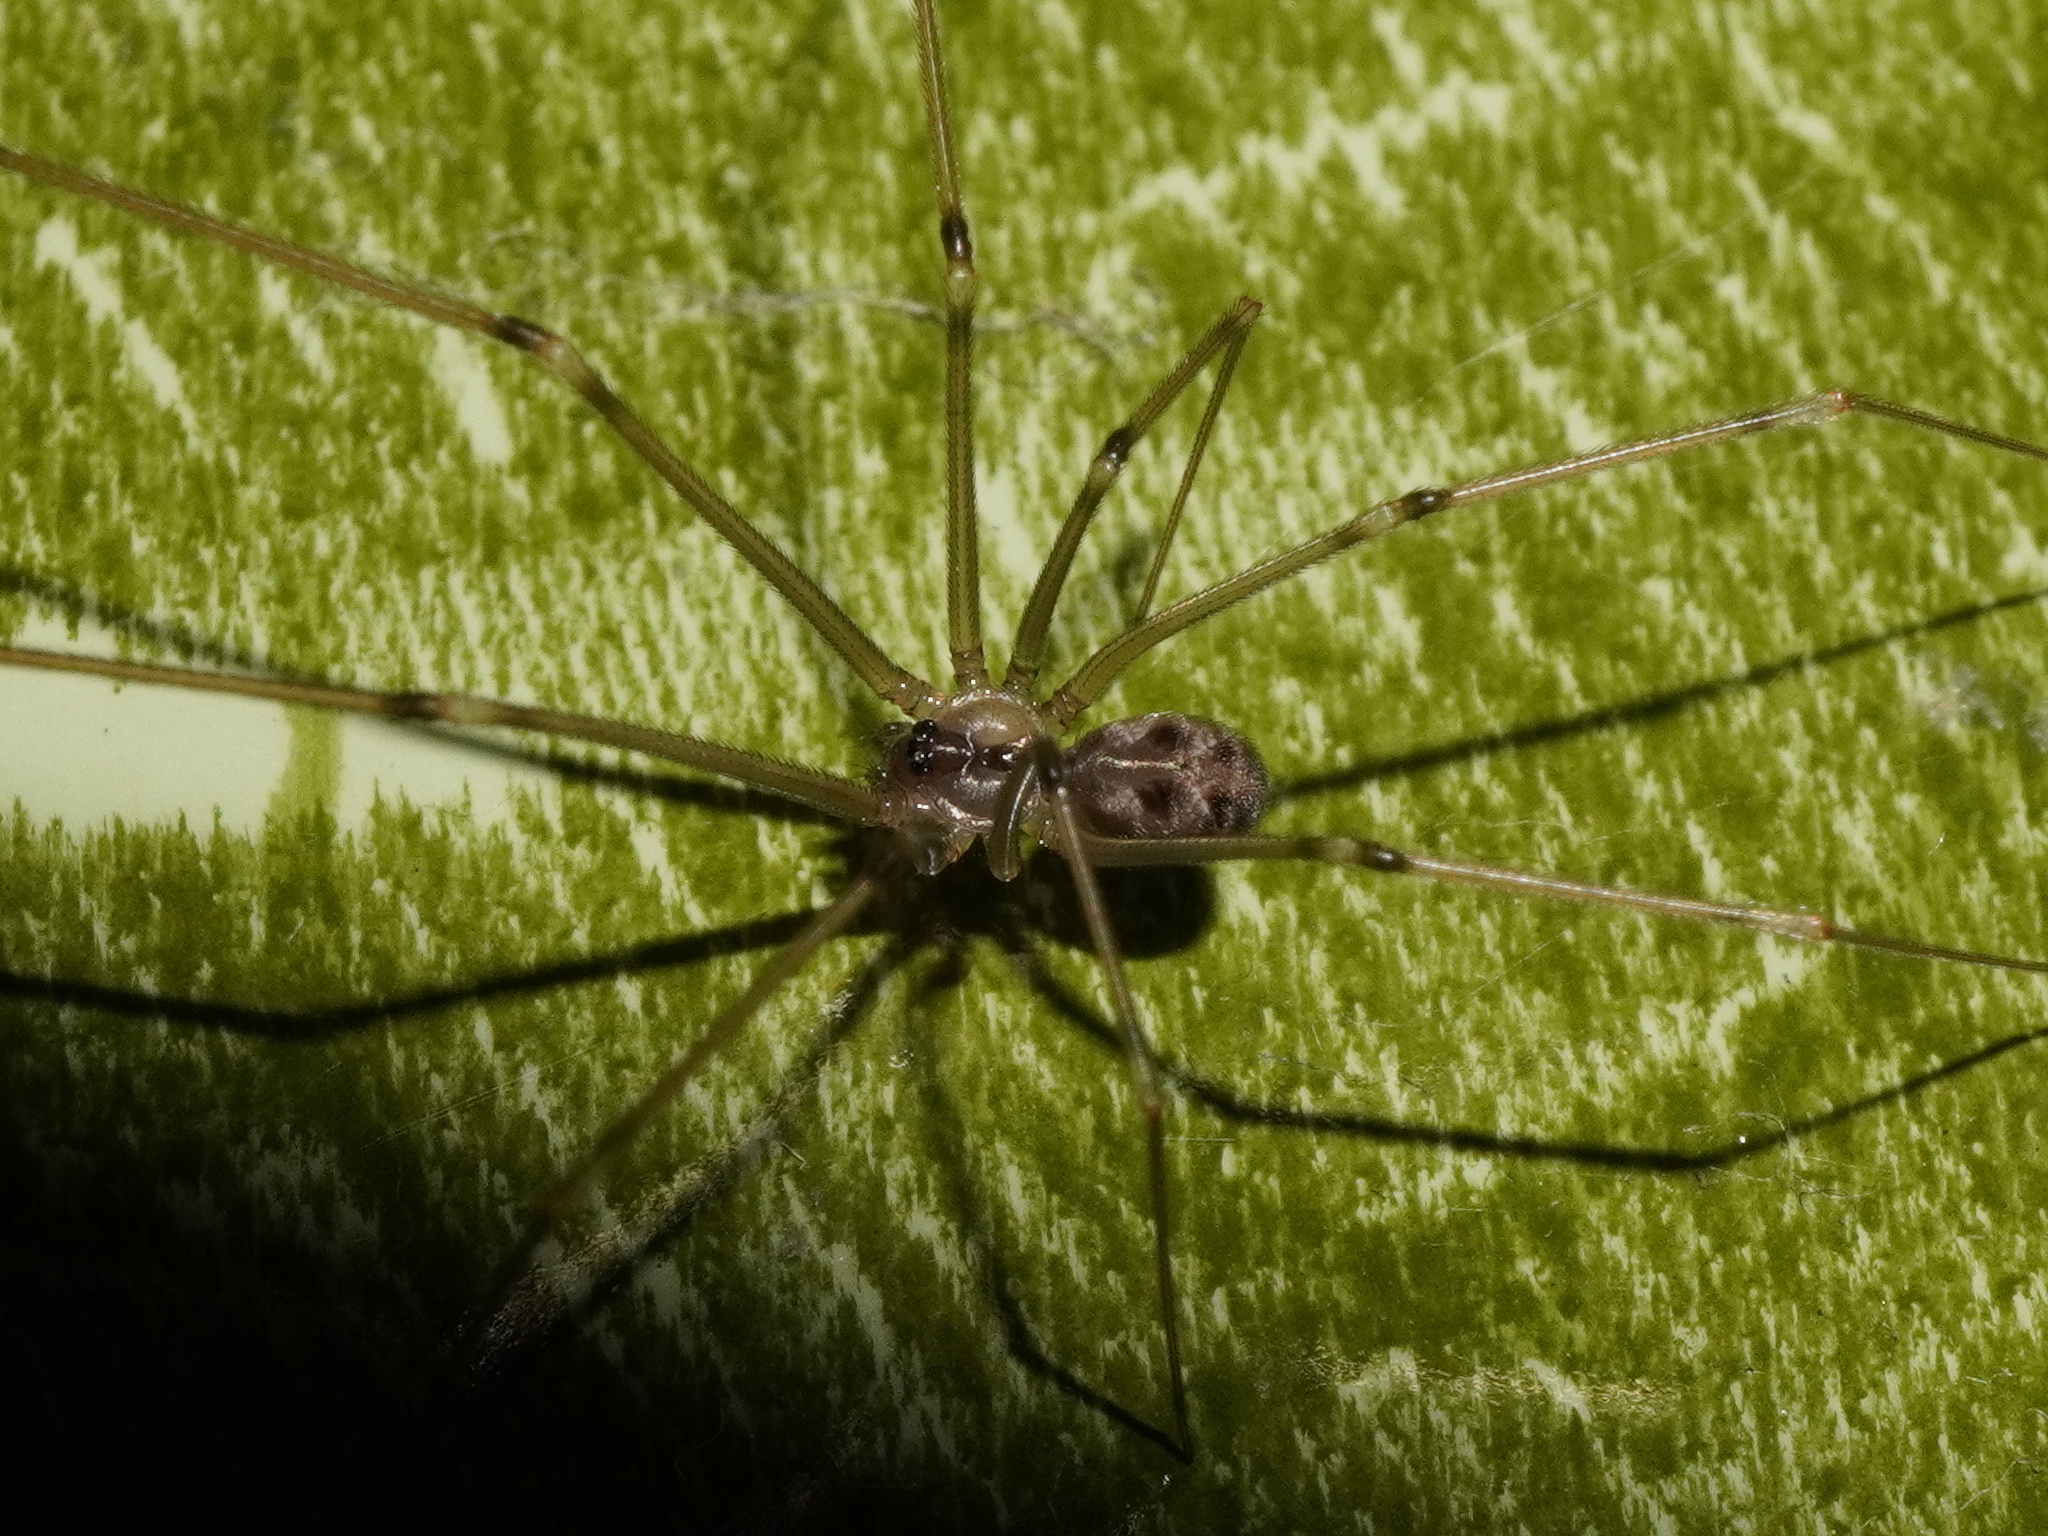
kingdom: Animalia
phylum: Arthropoda
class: Arachnida
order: Araneae
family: Pholcidae
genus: Hoplopholcus
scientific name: Hoplopholcus forskali
